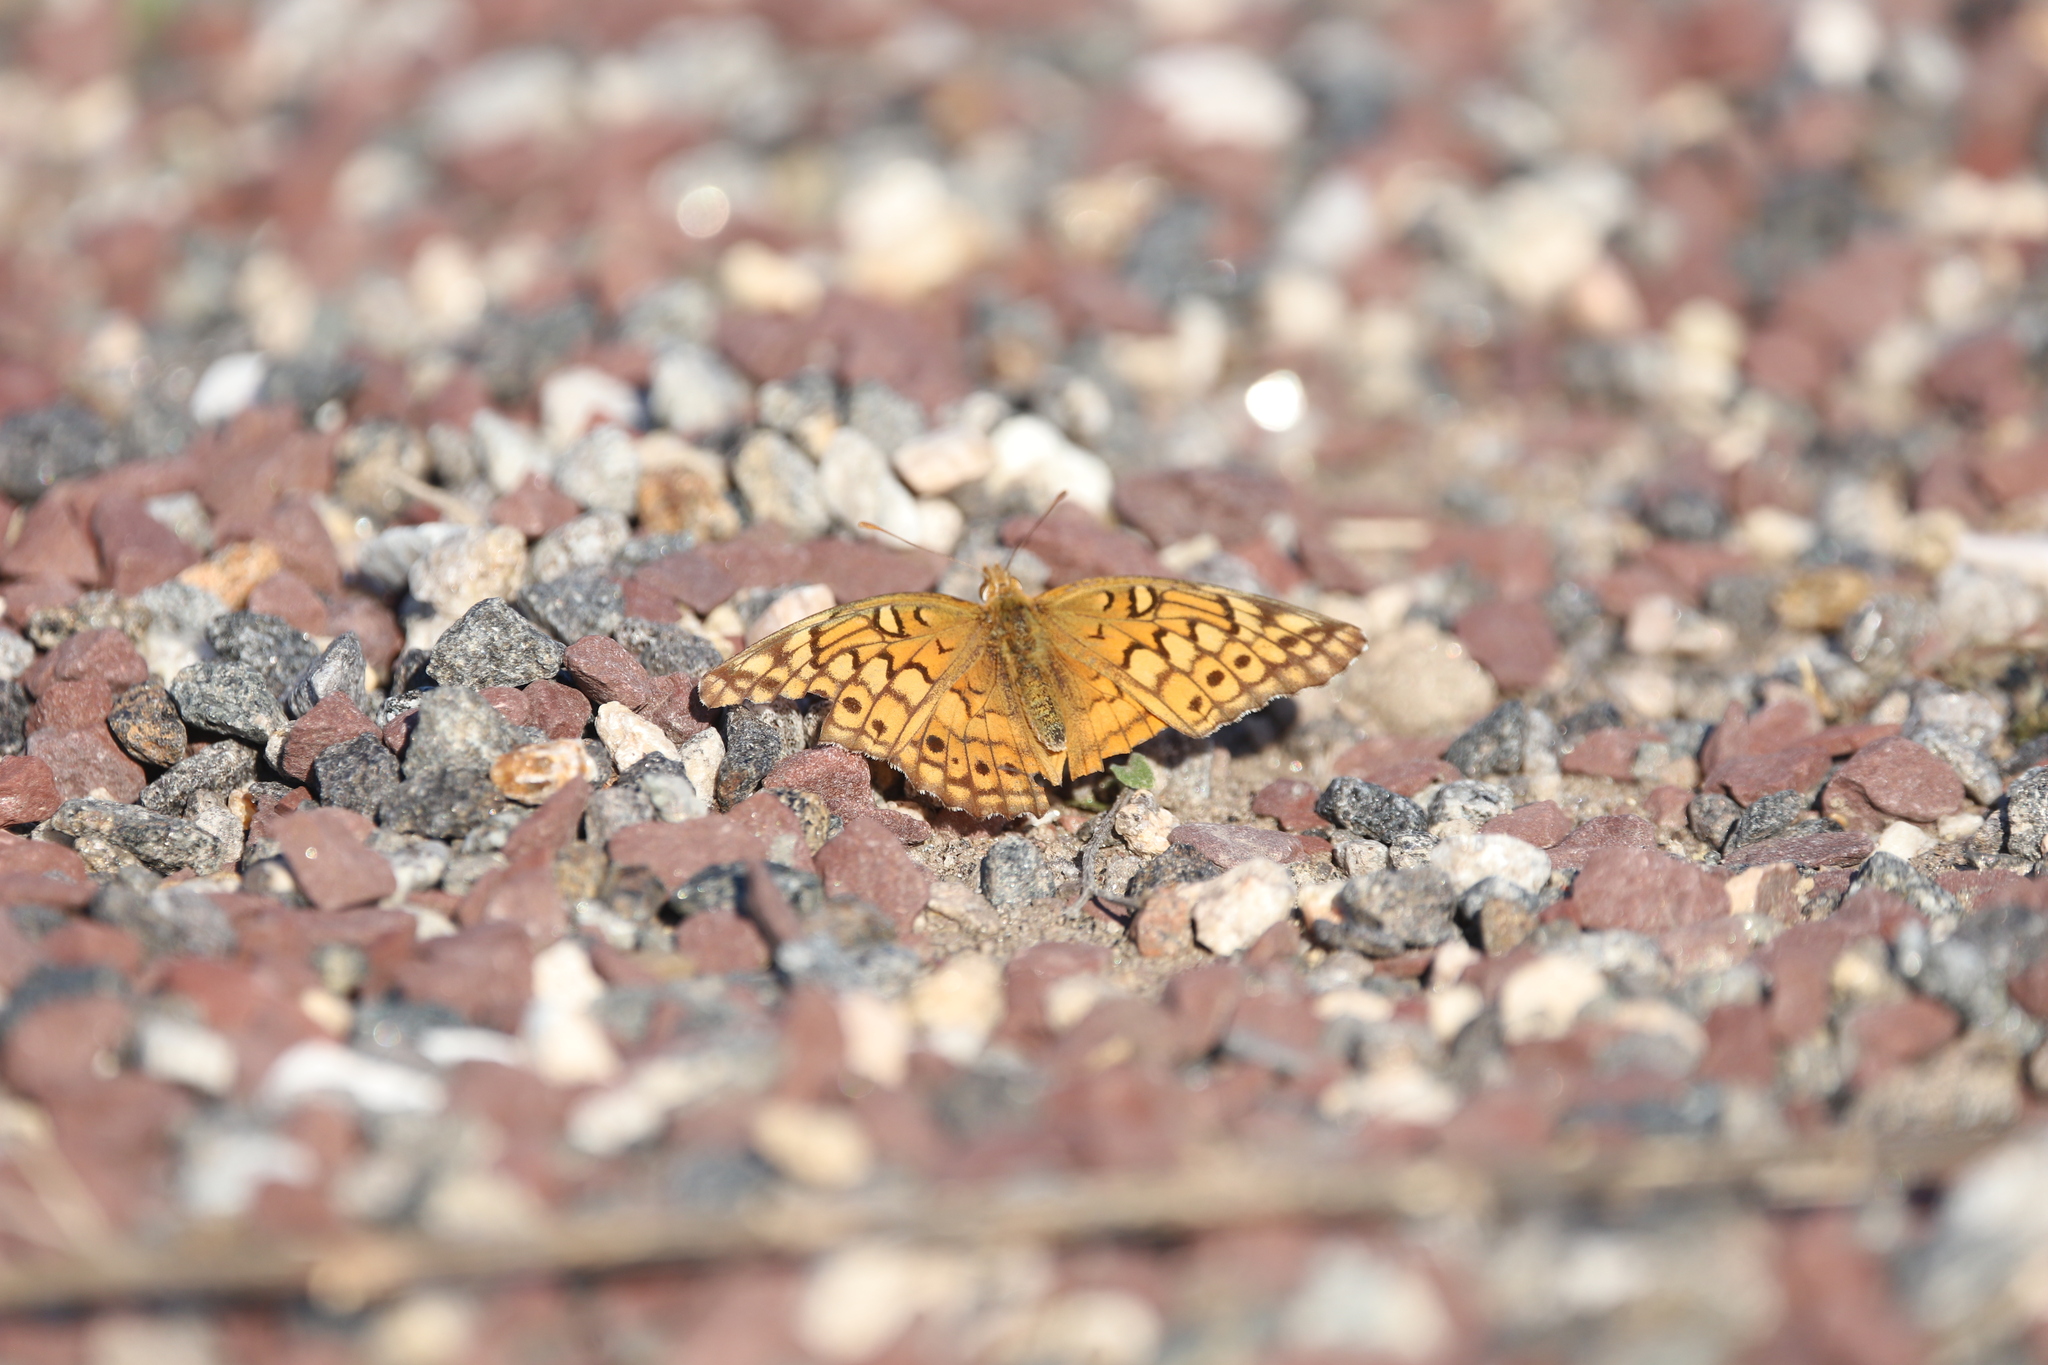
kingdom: Animalia
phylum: Arthropoda
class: Insecta
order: Lepidoptera
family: Nymphalidae
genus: Euptoieta
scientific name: Euptoieta claudia
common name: Variegated fritillary
